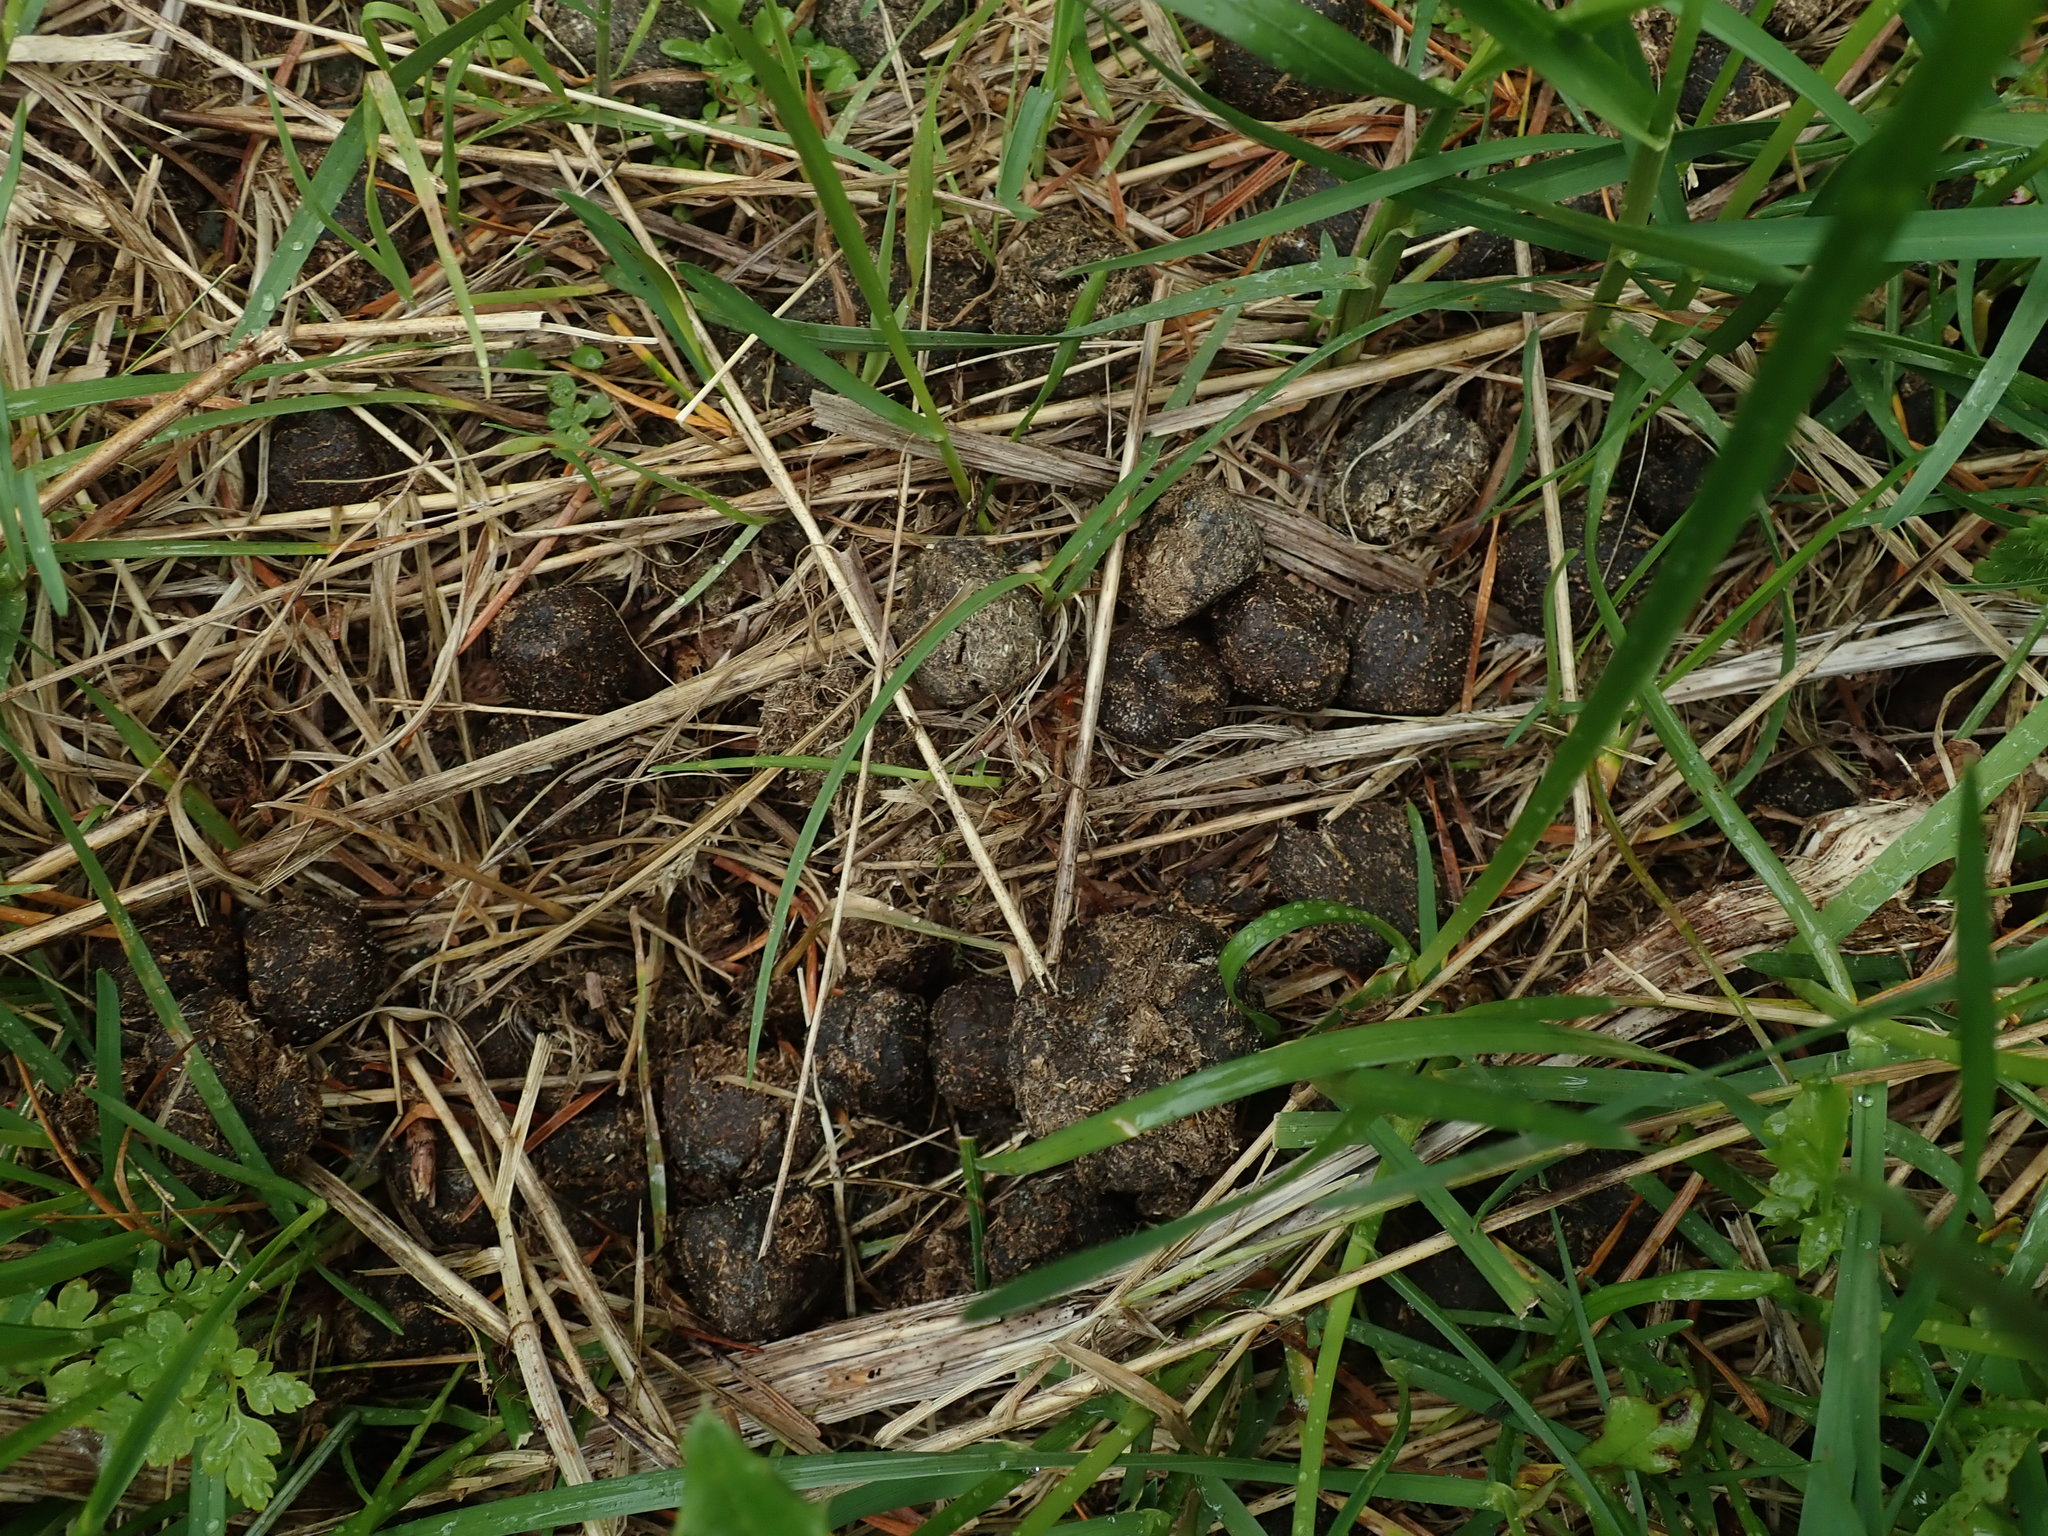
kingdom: Animalia
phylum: Chordata
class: Mammalia
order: Artiodactyla
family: Cervidae
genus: Cervus
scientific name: Cervus elaphus
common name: Red deer
